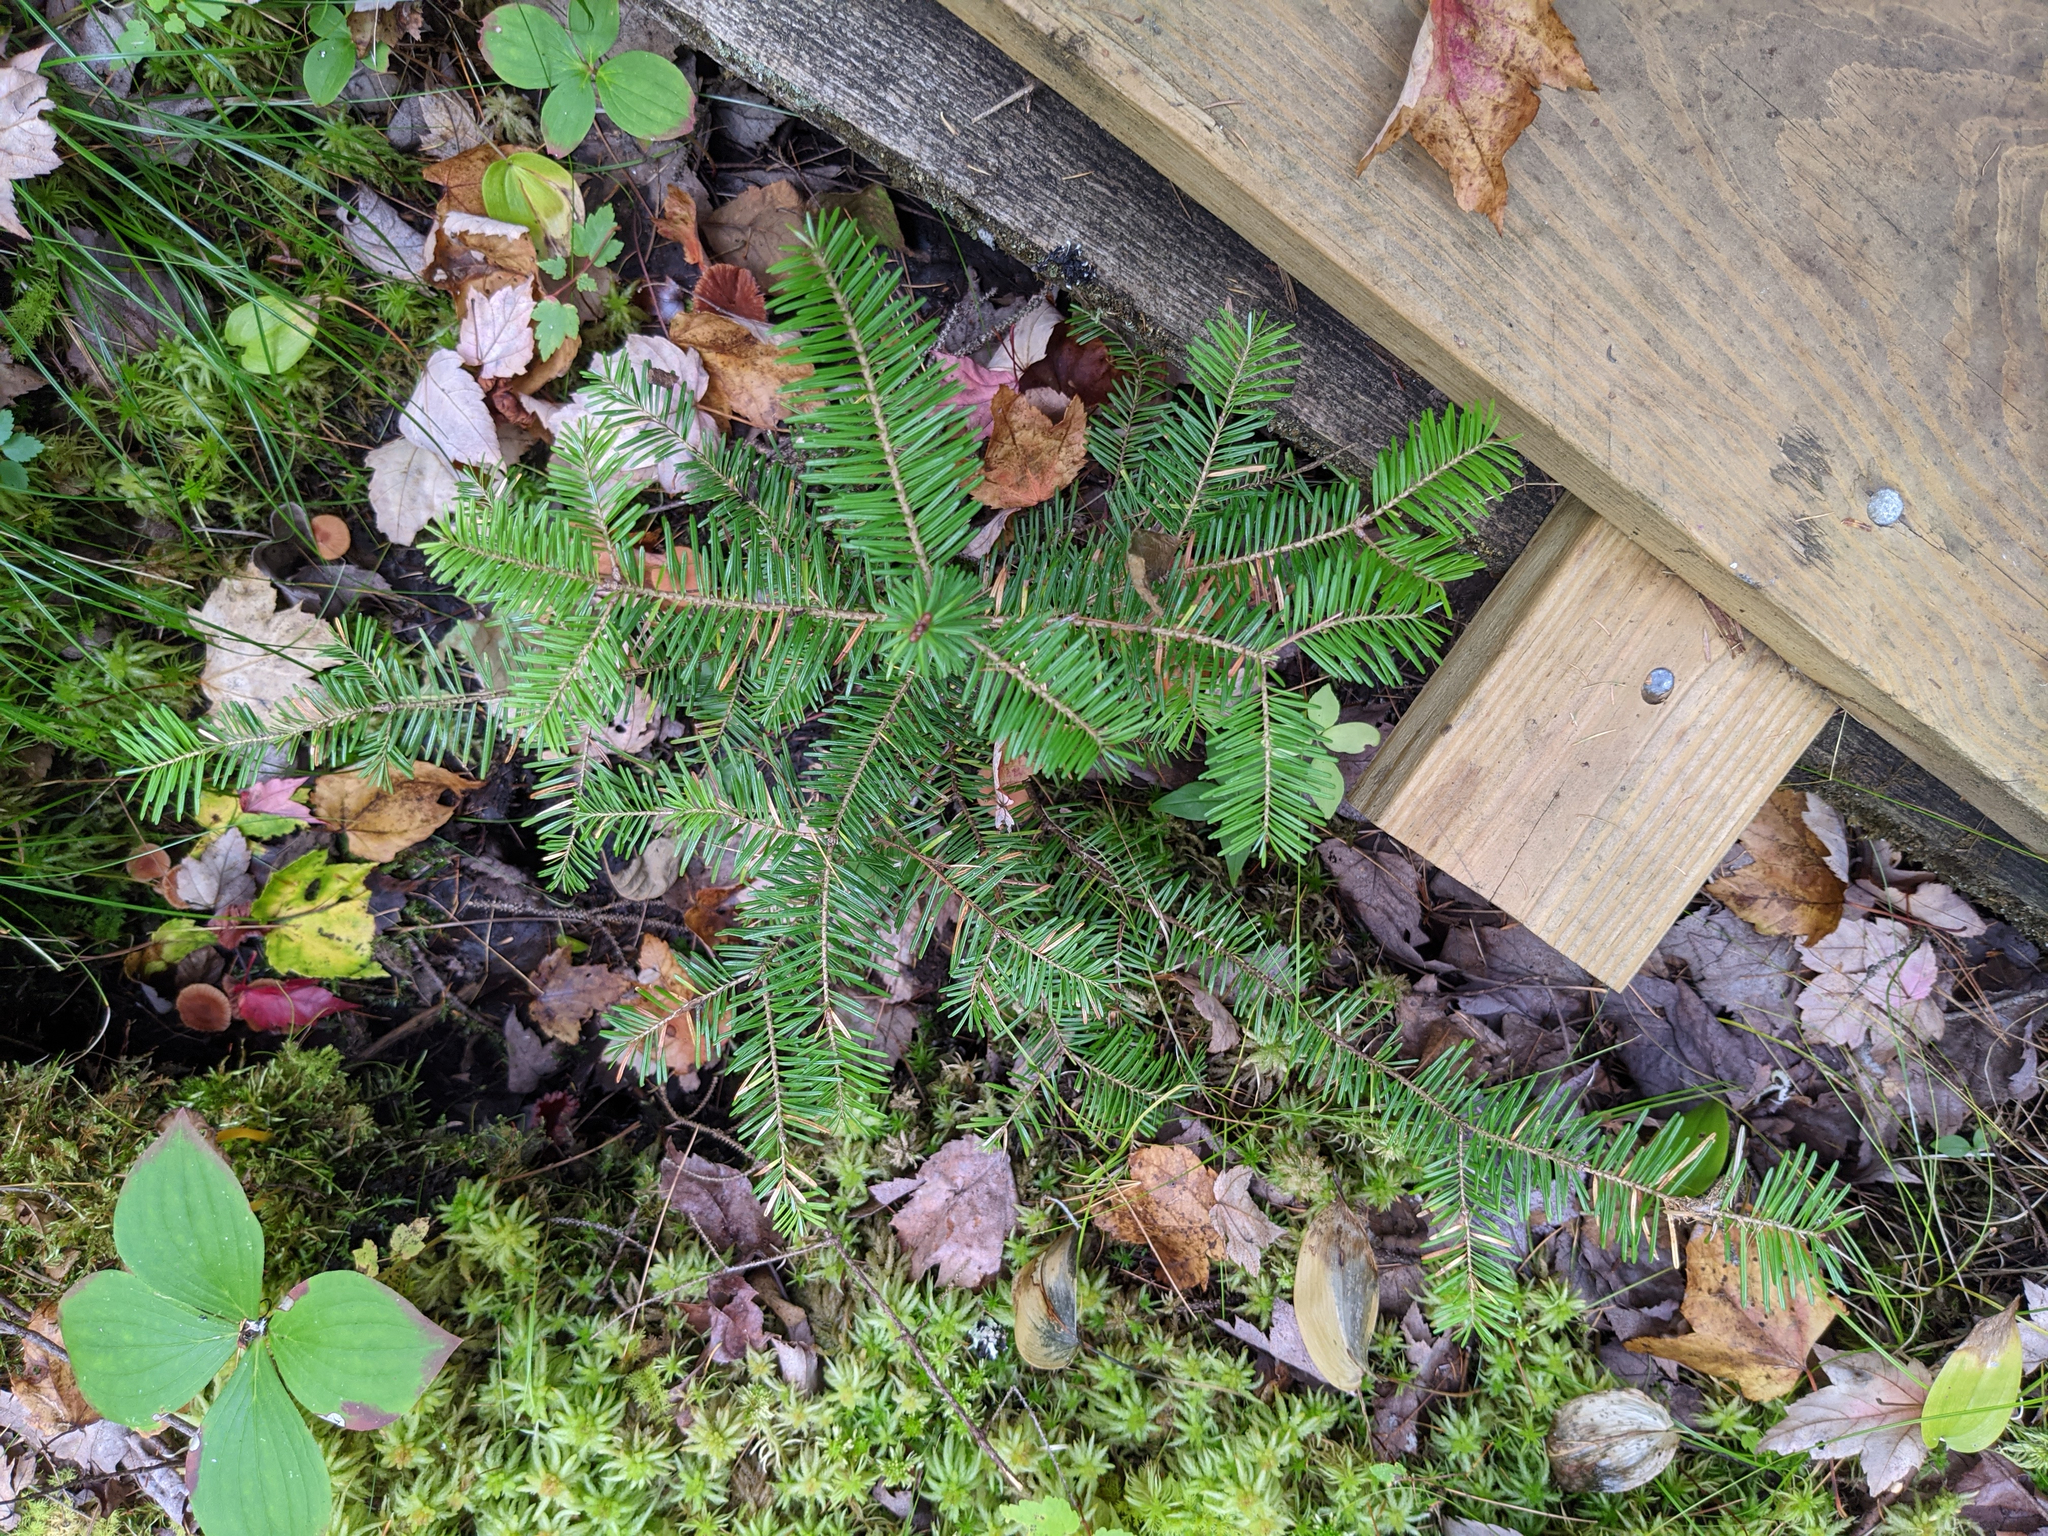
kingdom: Plantae
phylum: Tracheophyta
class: Pinopsida
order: Pinales
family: Pinaceae
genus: Abies
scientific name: Abies balsamea
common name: Balsam fir
